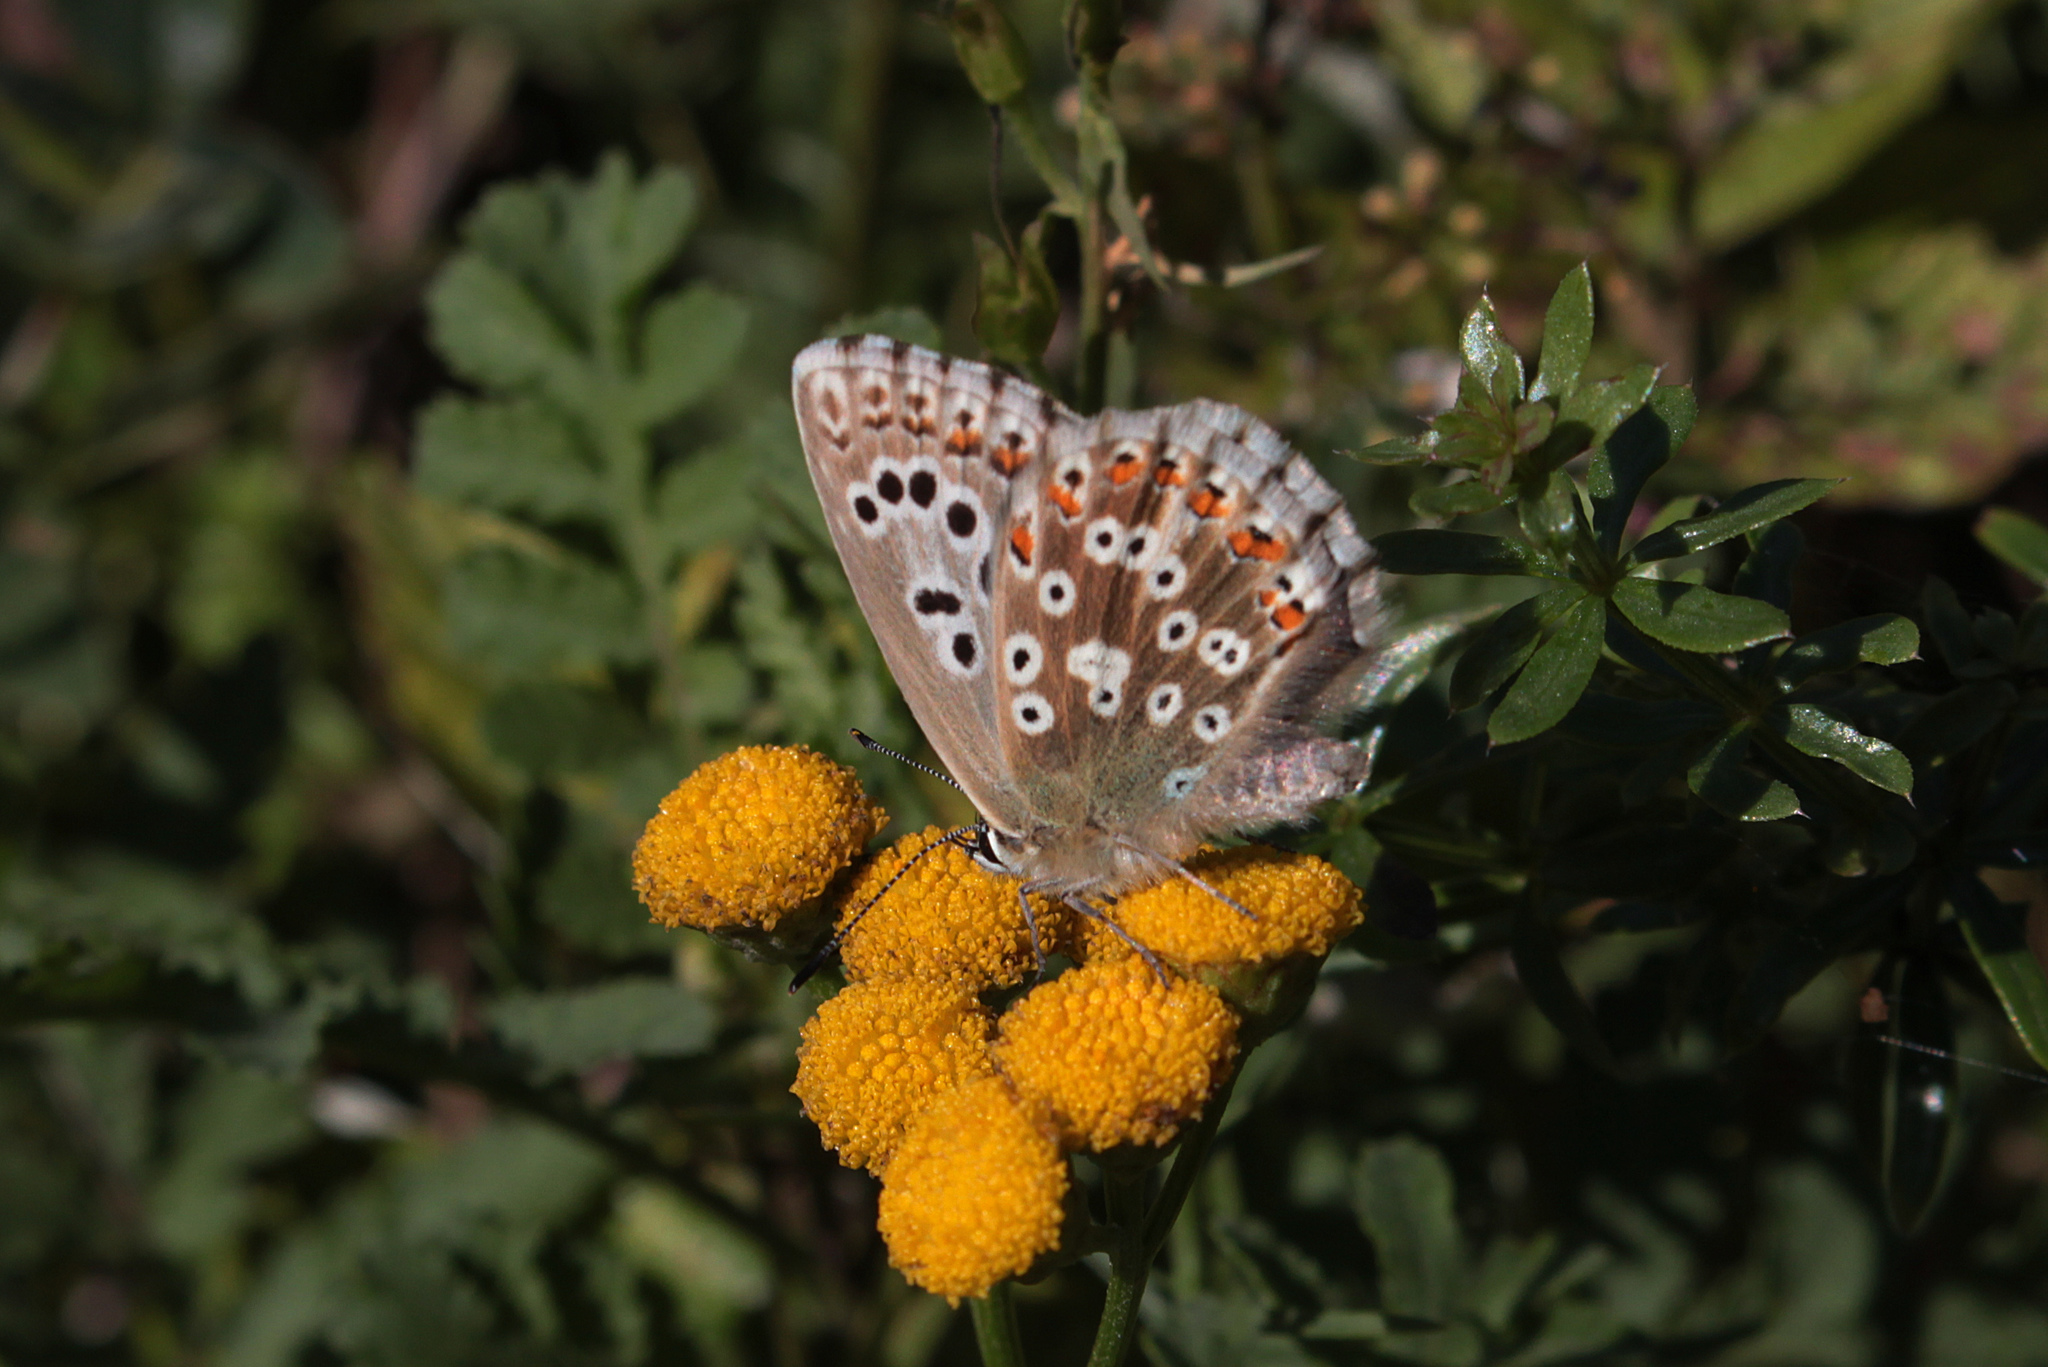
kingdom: Animalia
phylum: Arthropoda
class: Insecta
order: Lepidoptera
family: Lycaenidae
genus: Lysandra
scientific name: Lysandra coridon
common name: Chalkhill blue
